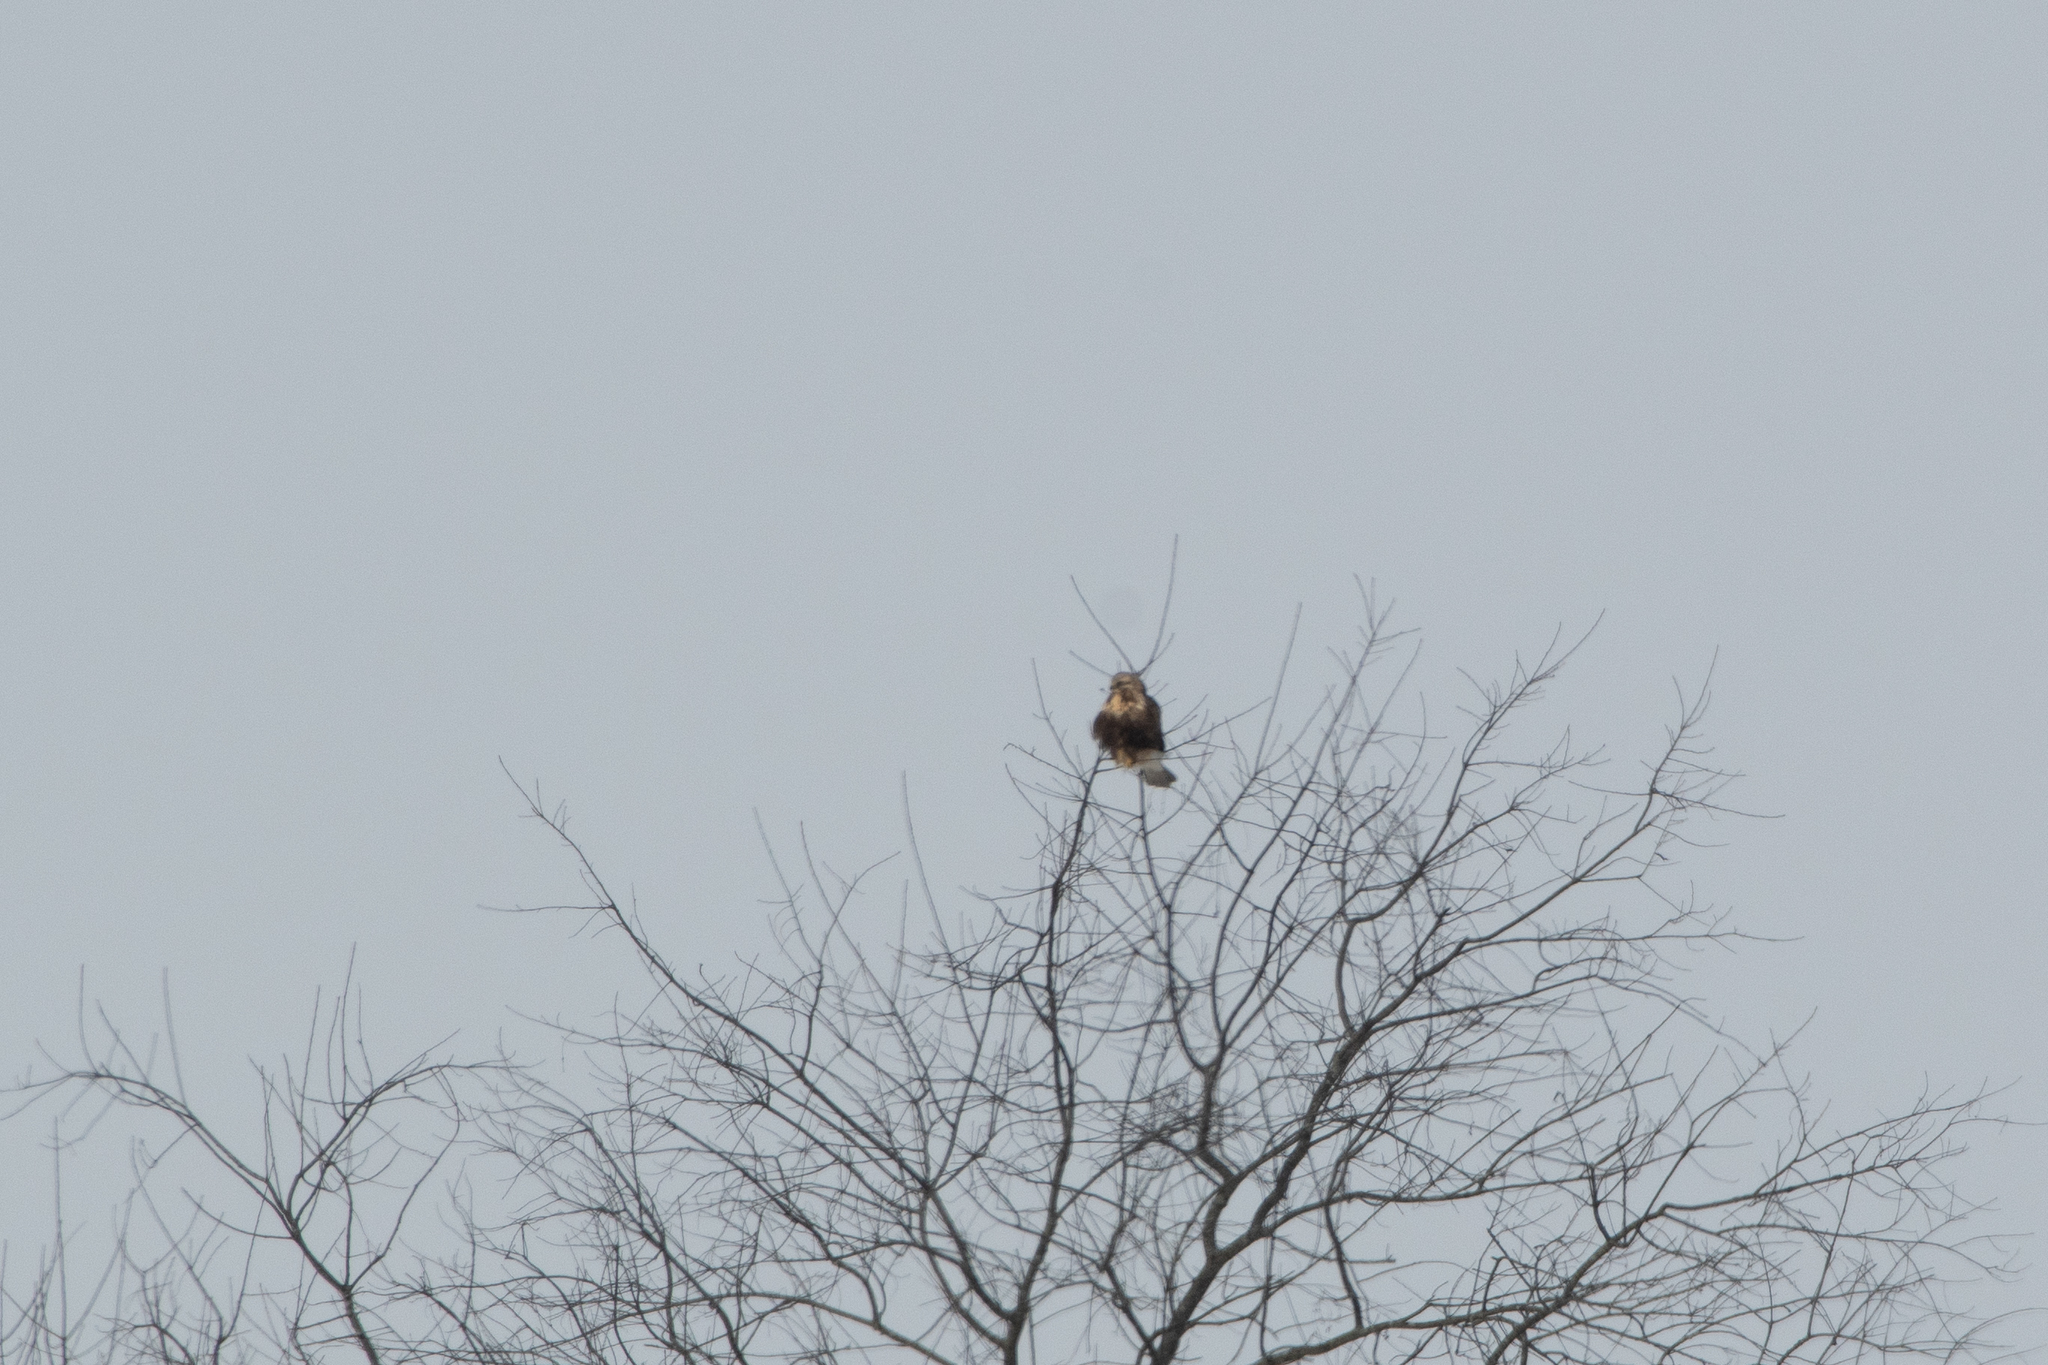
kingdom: Animalia
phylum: Chordata
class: Aves
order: Accipitriformes
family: Accipitridae
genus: Buteo
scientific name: Buteo lagopus
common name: Rough-legged buzzard
